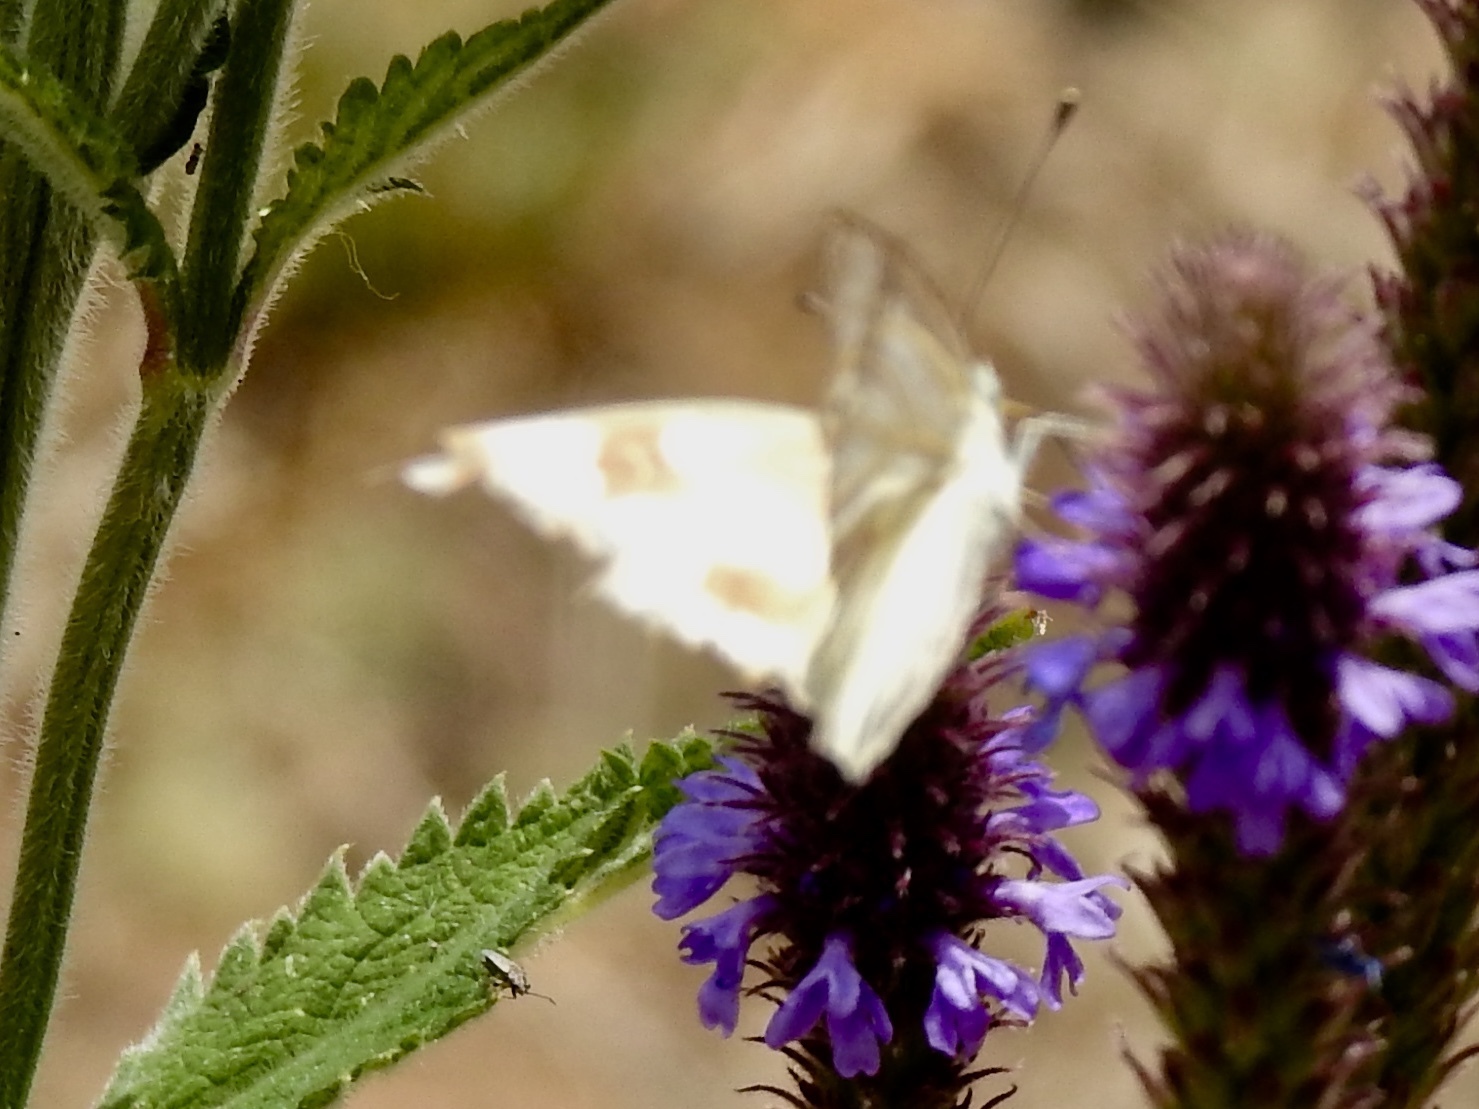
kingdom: Animalia
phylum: Arthropoda
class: Insecta
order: Lepidoptera
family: Pieridae
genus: Pontia
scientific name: Pontia protodice
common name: Checkered white
